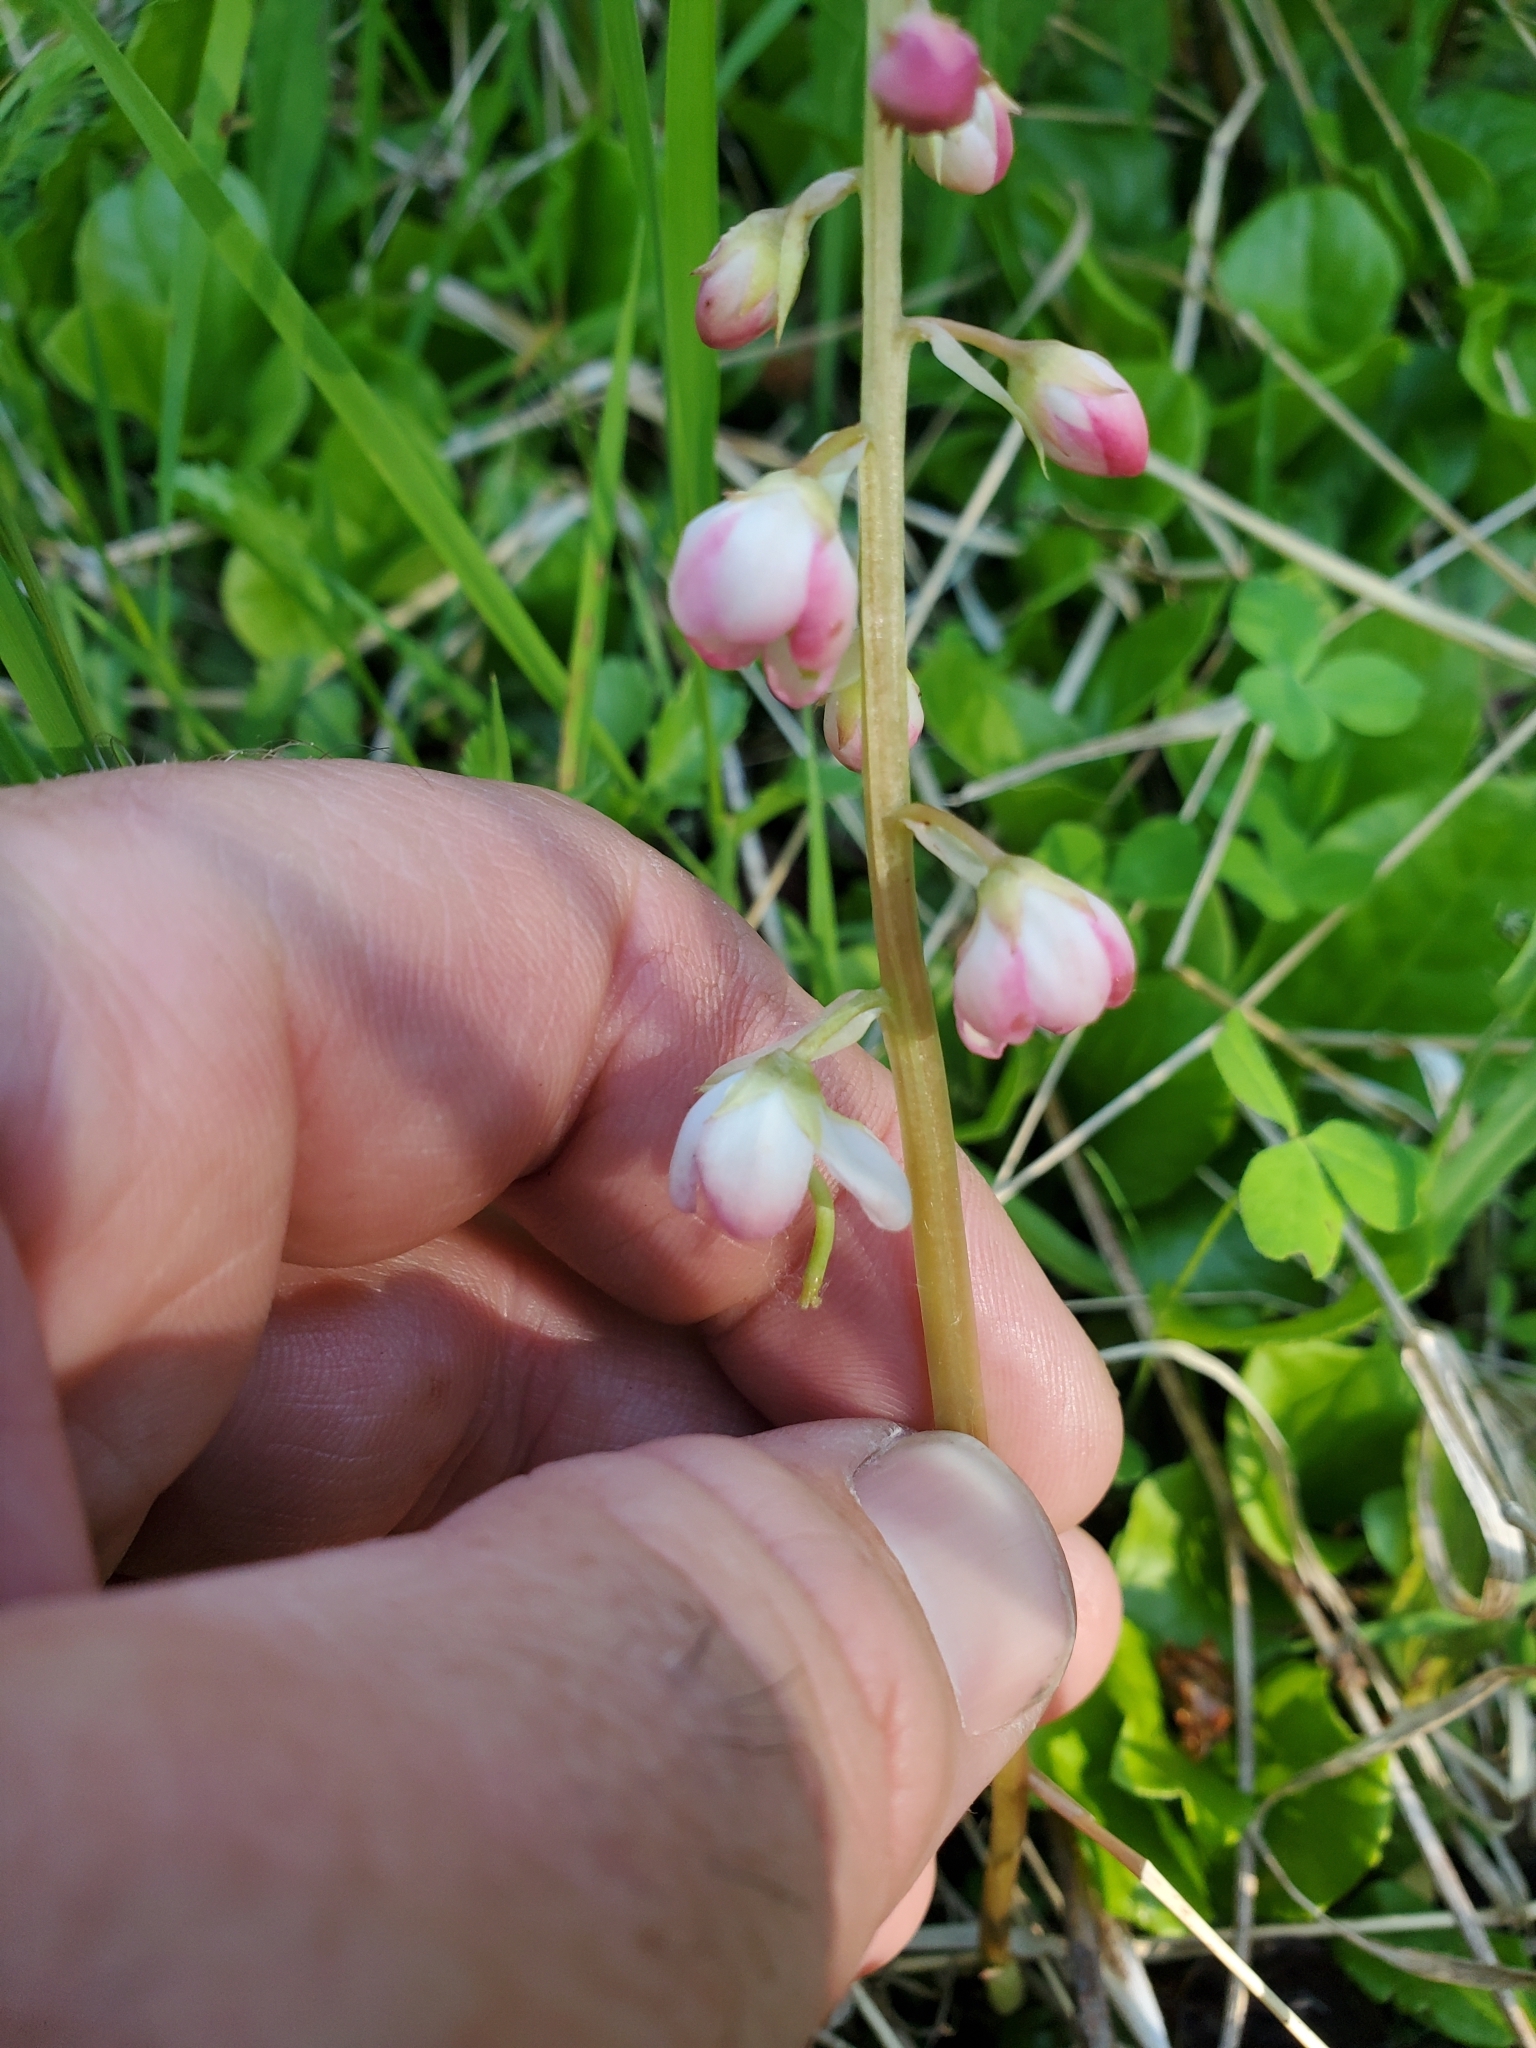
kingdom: Plantae
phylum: Tracheophyta
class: Magnoliopsida
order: Ericales
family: Ericaceae
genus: Pyrola
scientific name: Pyrola asarifolia
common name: Bog wintergreen
